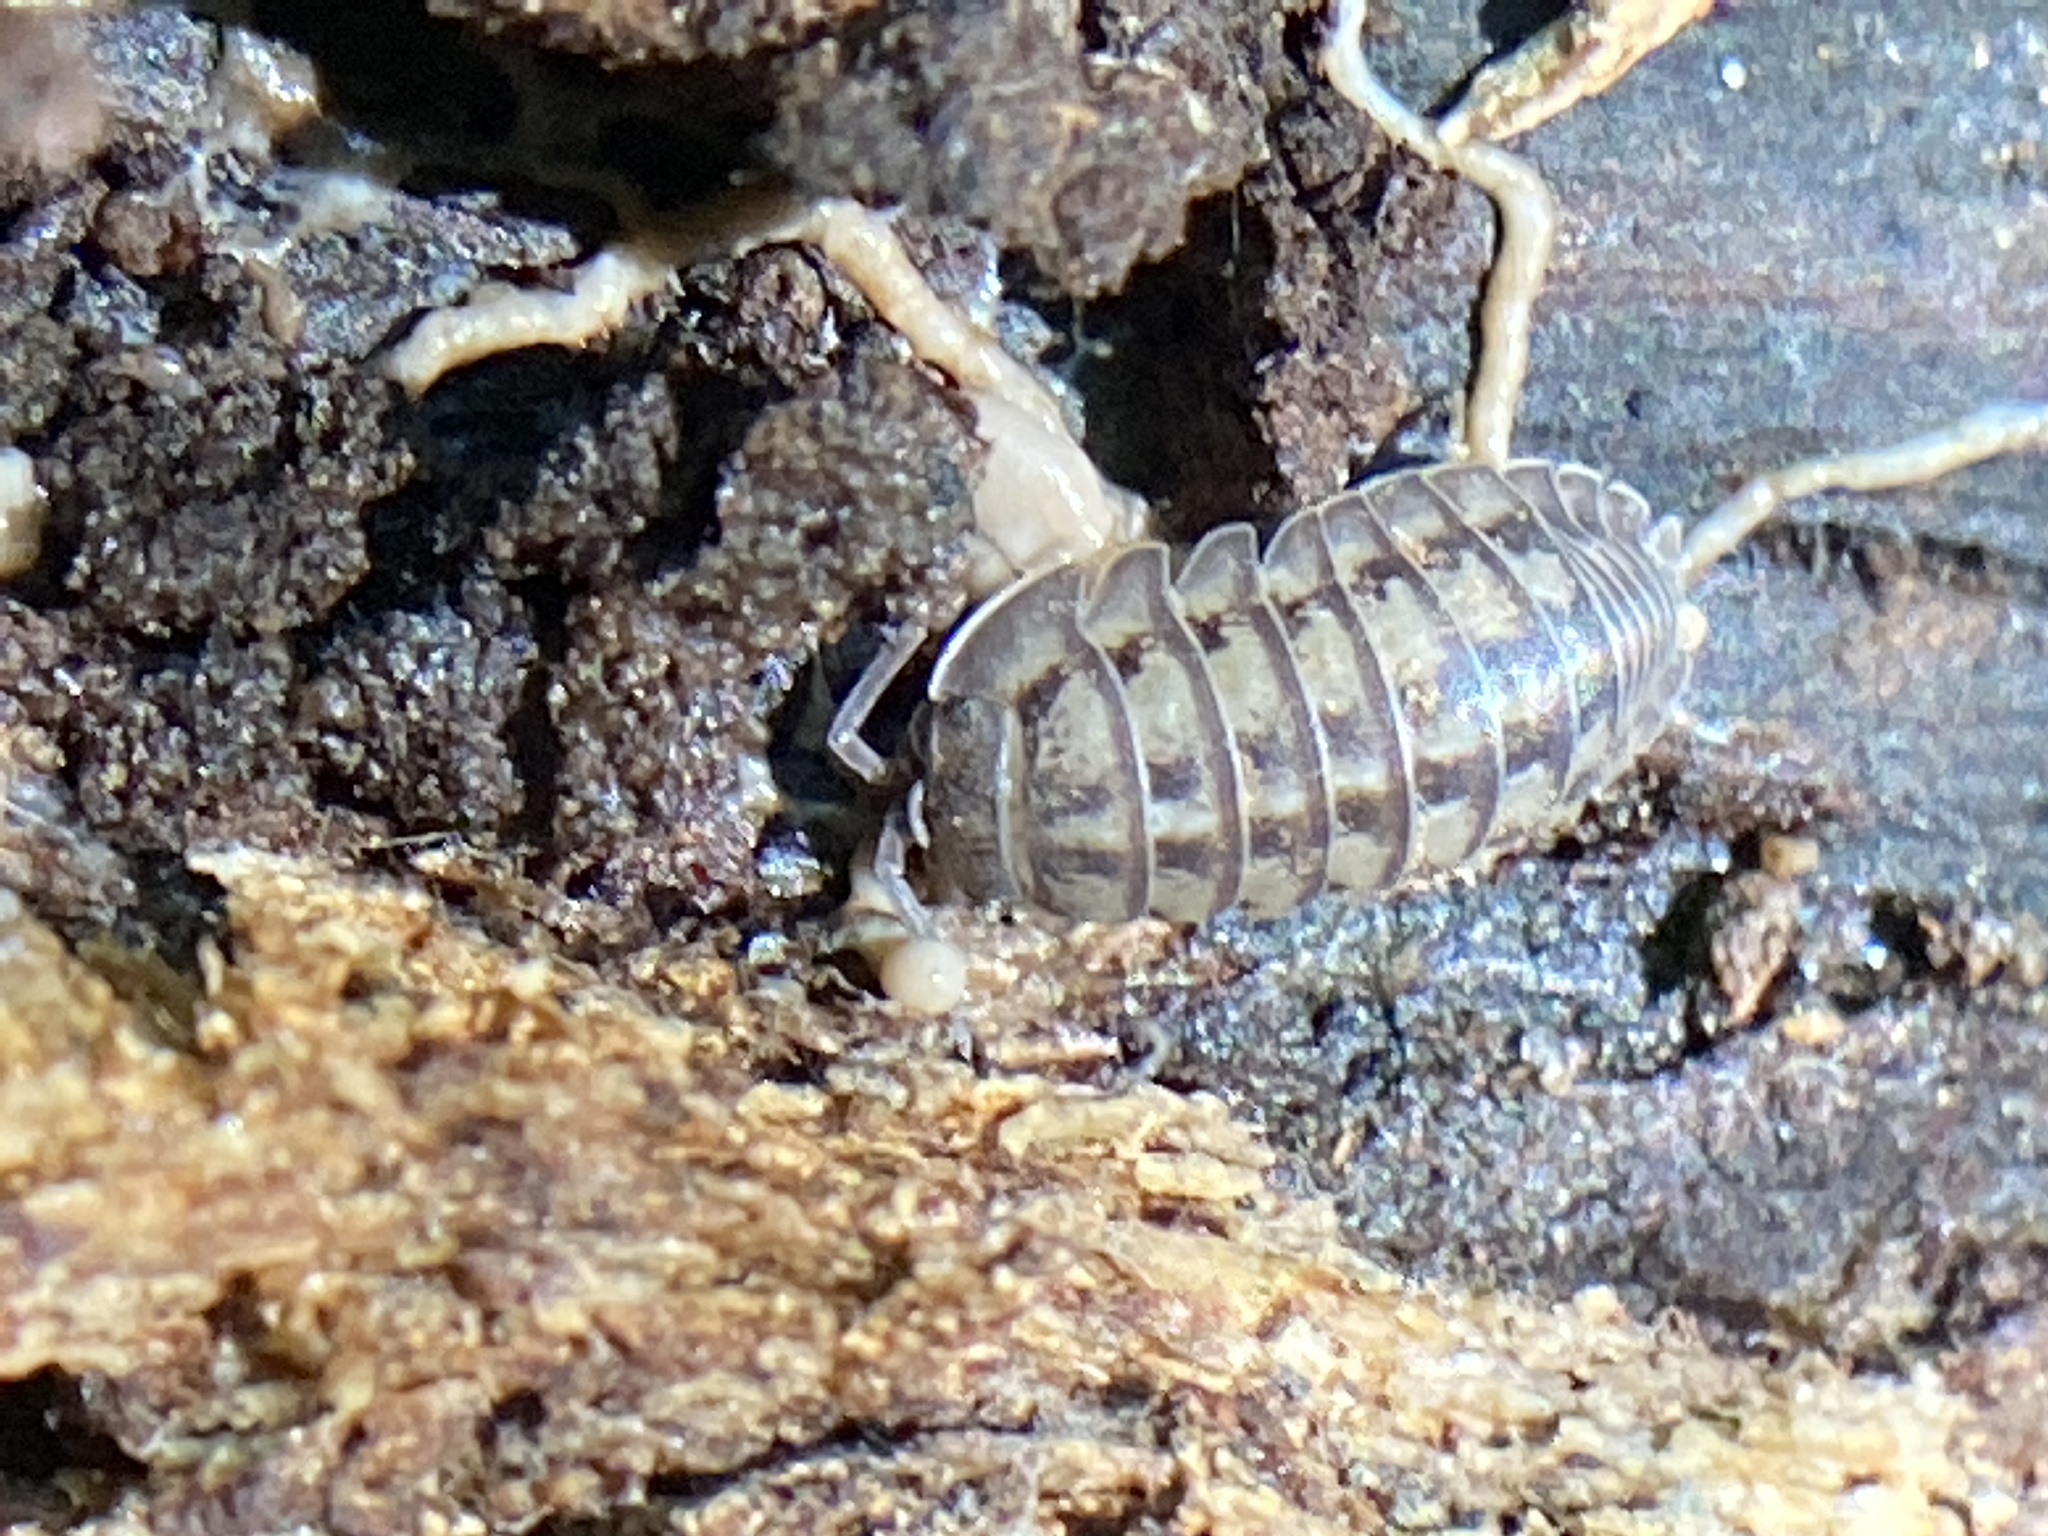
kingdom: Animalia
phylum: Arthropoda
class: Malacostraca
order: Isopoda
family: Armadillidiidae
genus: Armadillidium
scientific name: Armadillidium nasatum
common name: Isopod
